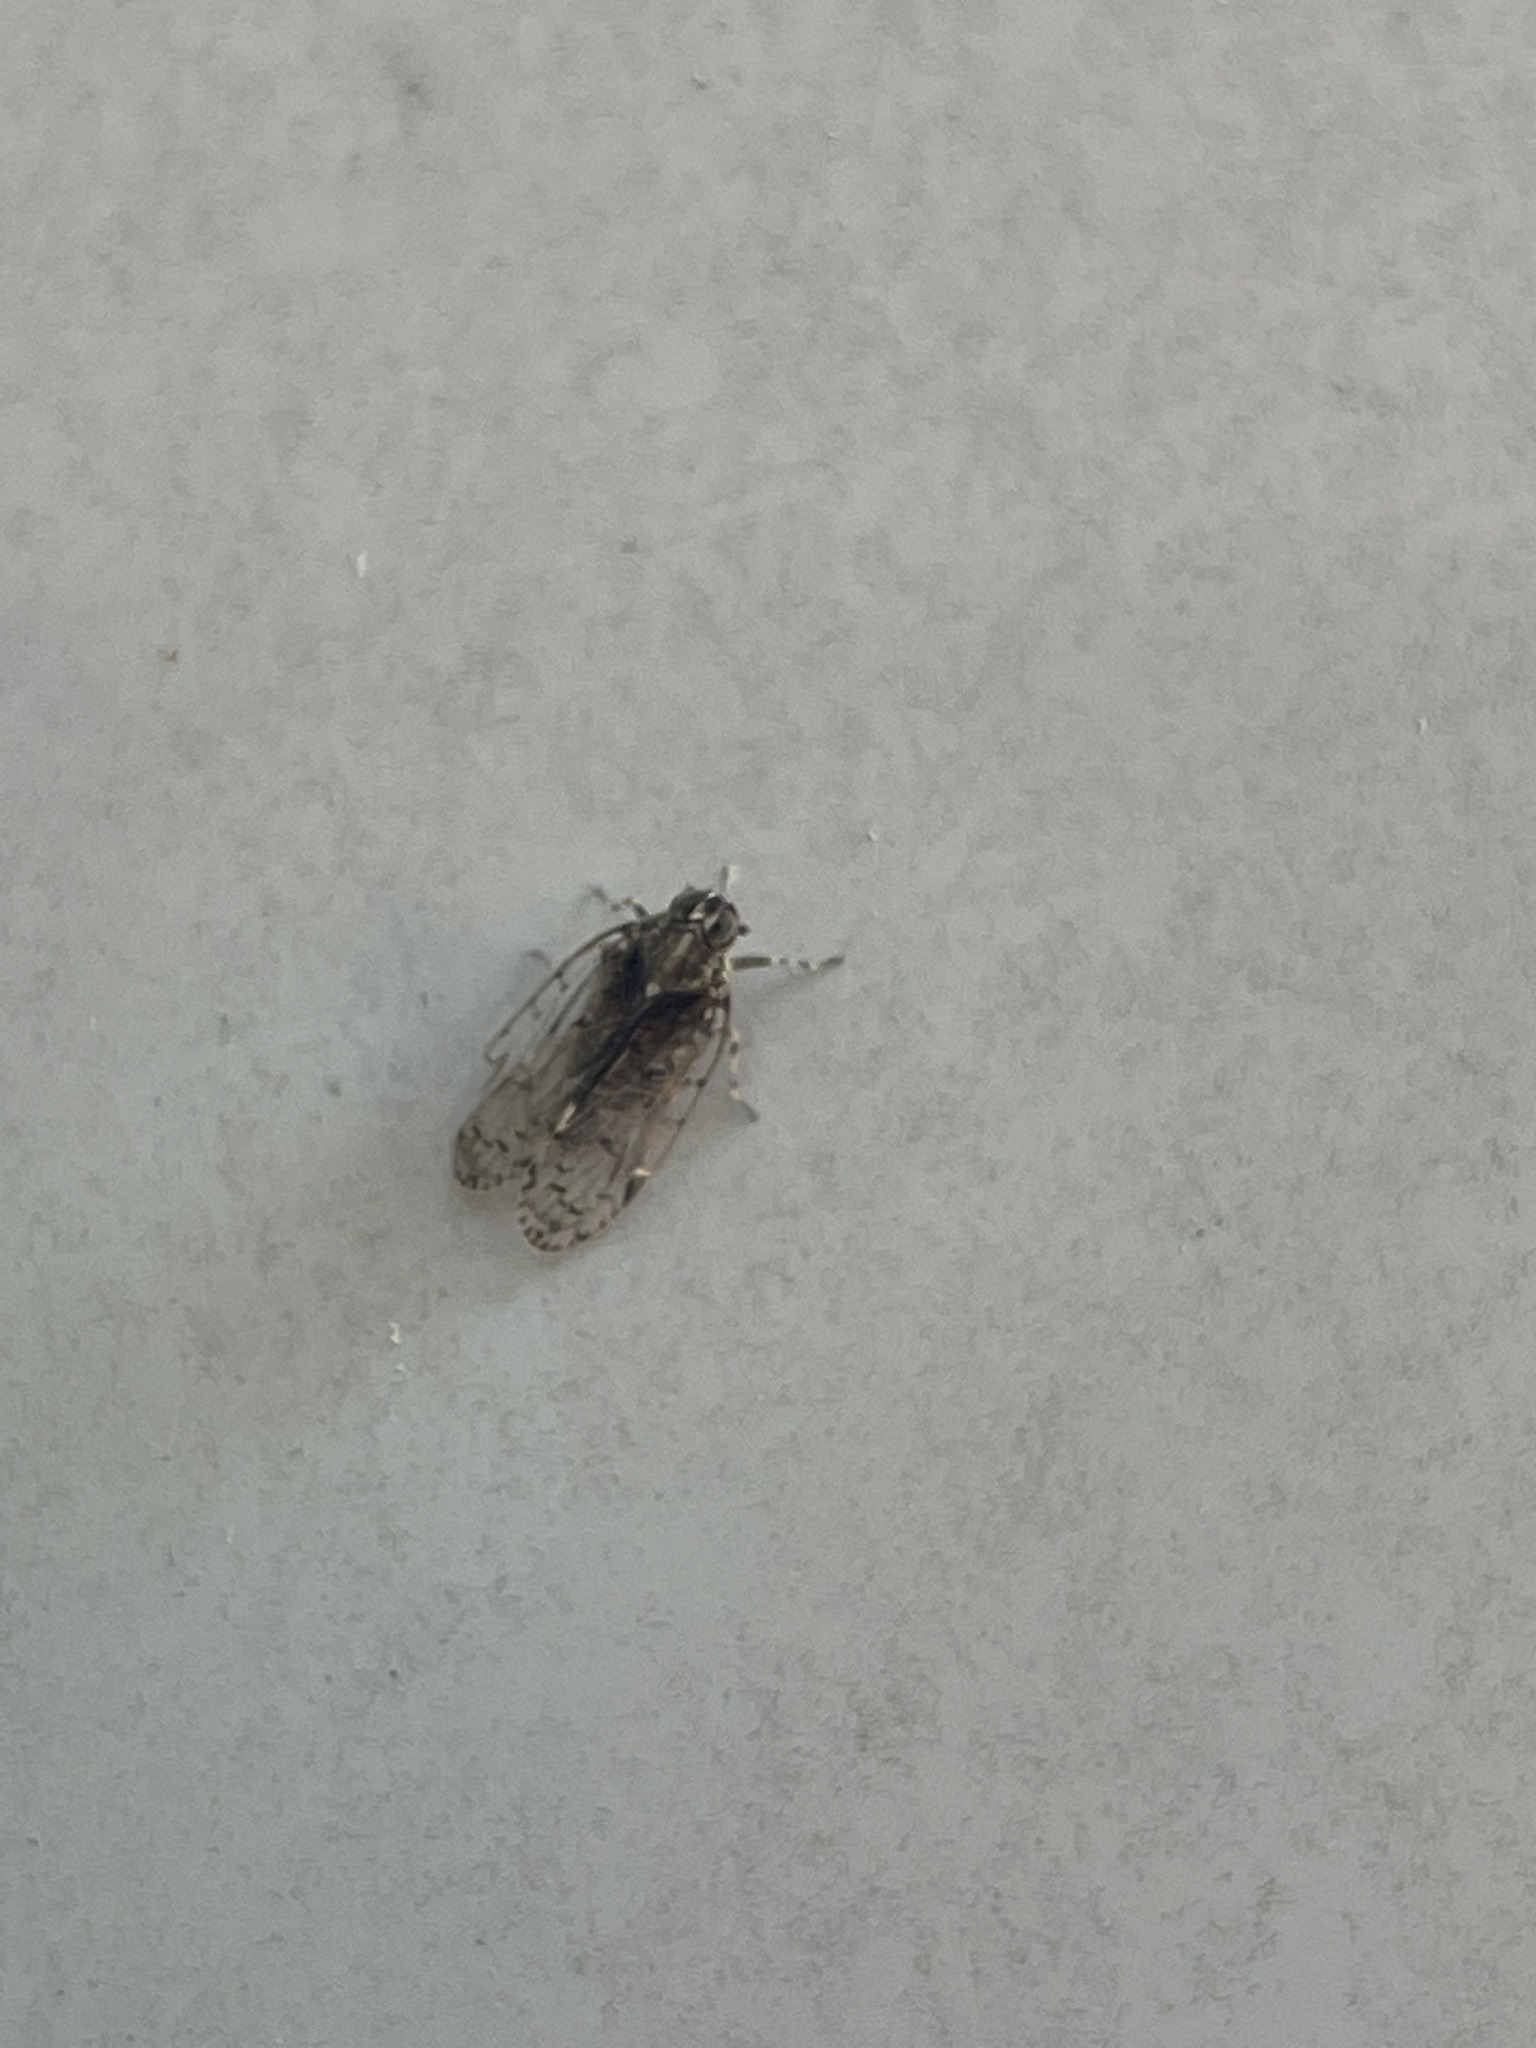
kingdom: Animalia
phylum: Arthropoda
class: Insecta
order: Hemiptera
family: Cixiidae
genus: Melanoliarus
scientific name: Melanoliarus placitus
